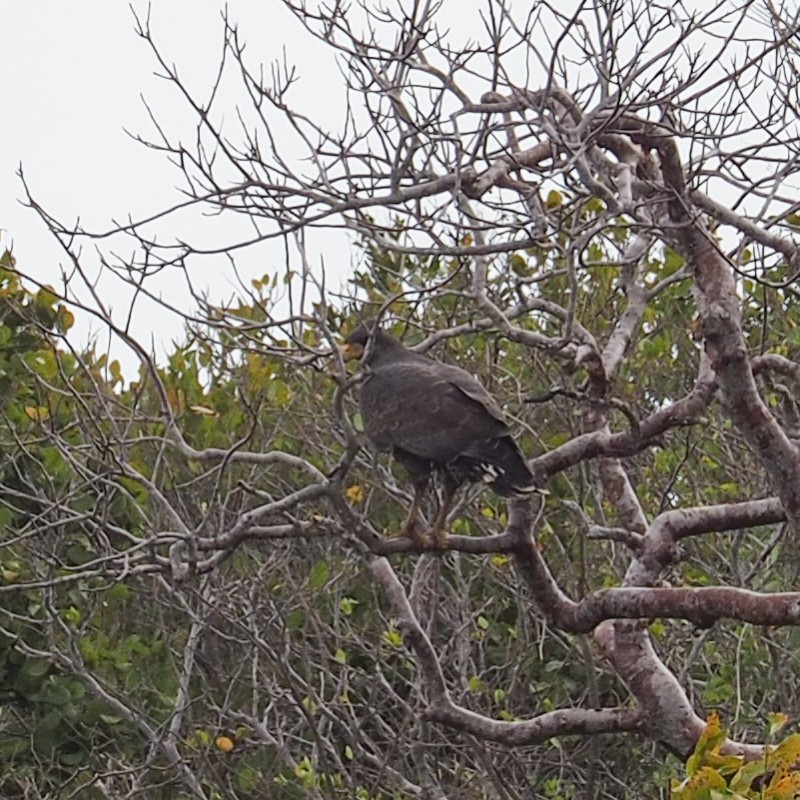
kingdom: Animalia
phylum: Chordata
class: Aves
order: Accipitriformes
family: Accipitridae
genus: Buteogallus
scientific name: Buteogallus gundlachii
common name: Cuban black hawk
